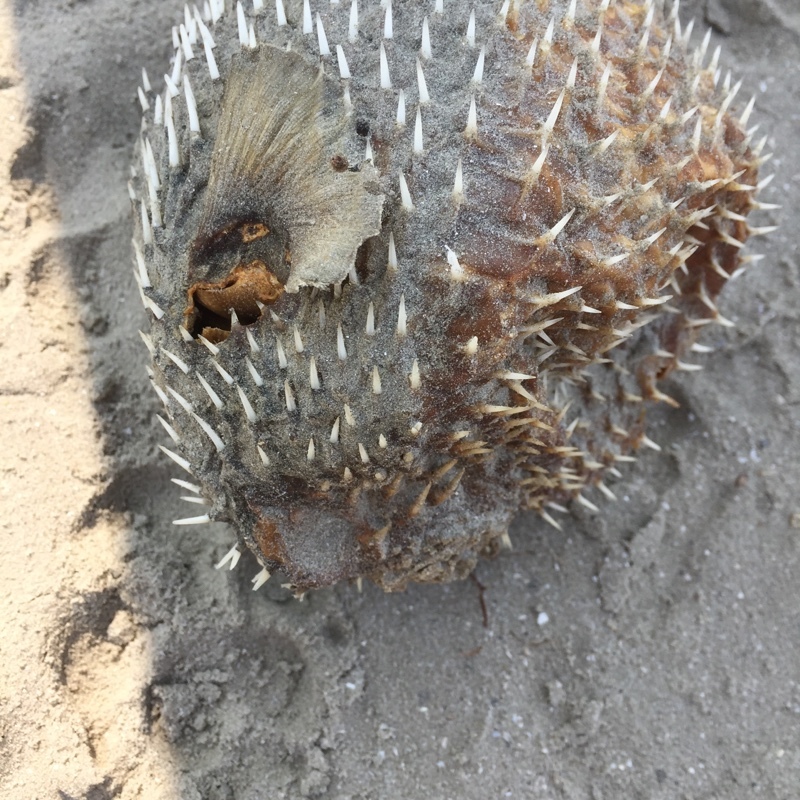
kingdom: Animalia
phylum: Chordata
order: Tetraodontiformes
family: Diodontidae
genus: Diodon
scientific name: Diodon hystrix
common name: Giant porcupinefish
